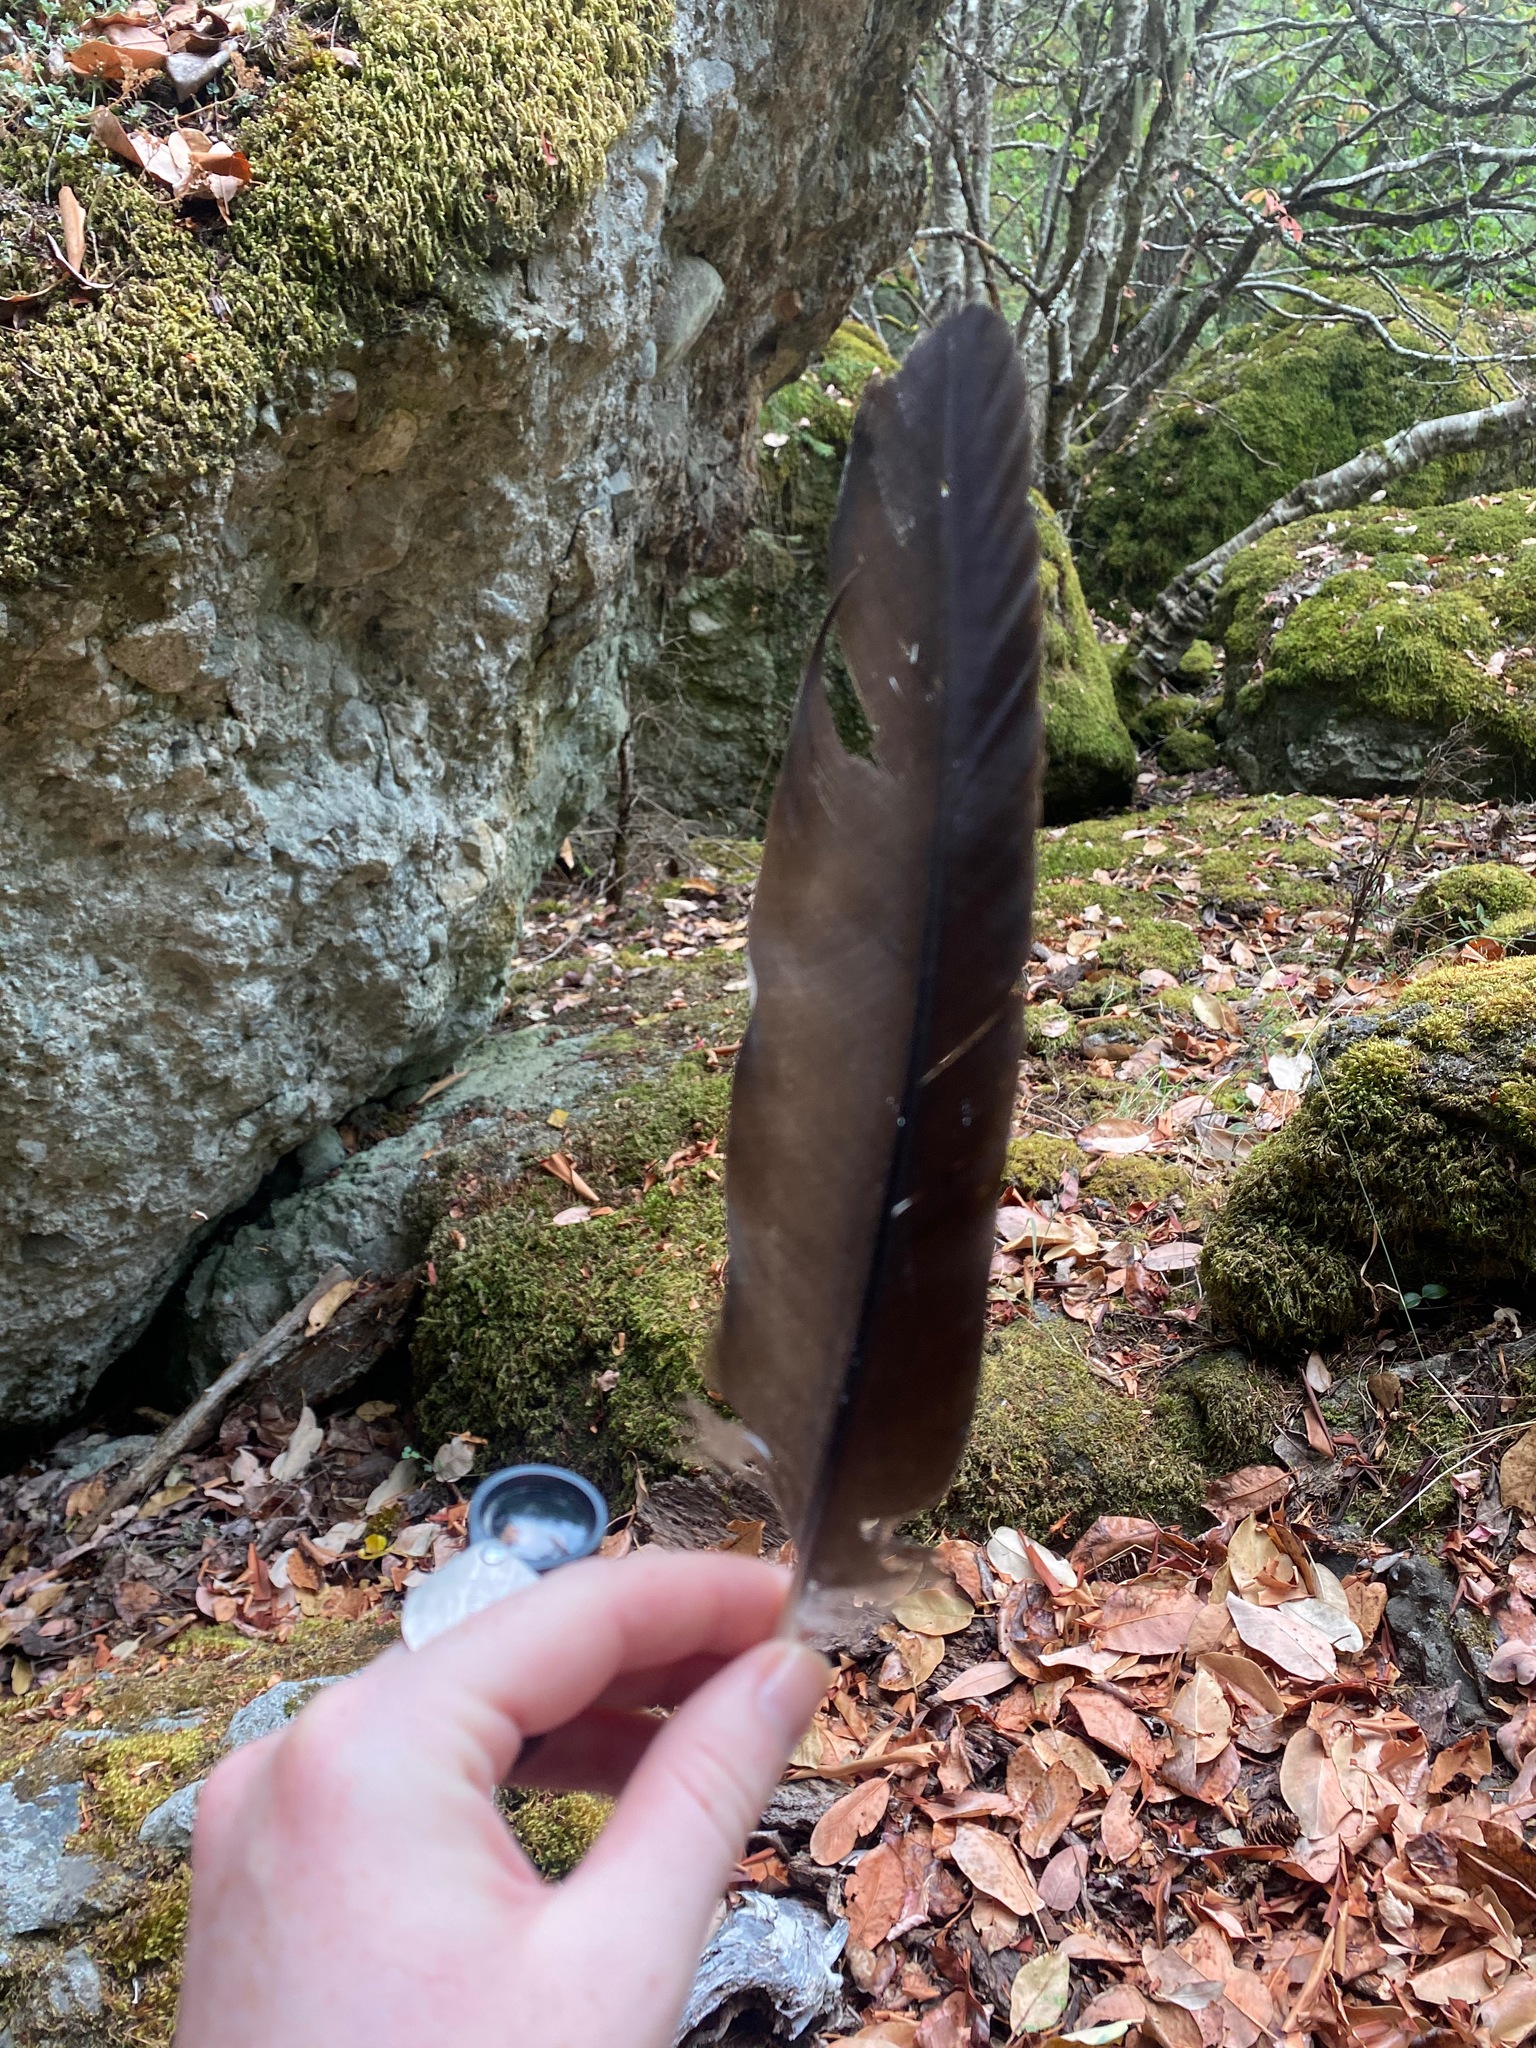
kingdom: Animalia
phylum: Chordata
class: Aves
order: Accipitriformes
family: Cathartidae
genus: Cathartes
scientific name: Cathartes aura
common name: Turkey vulture
